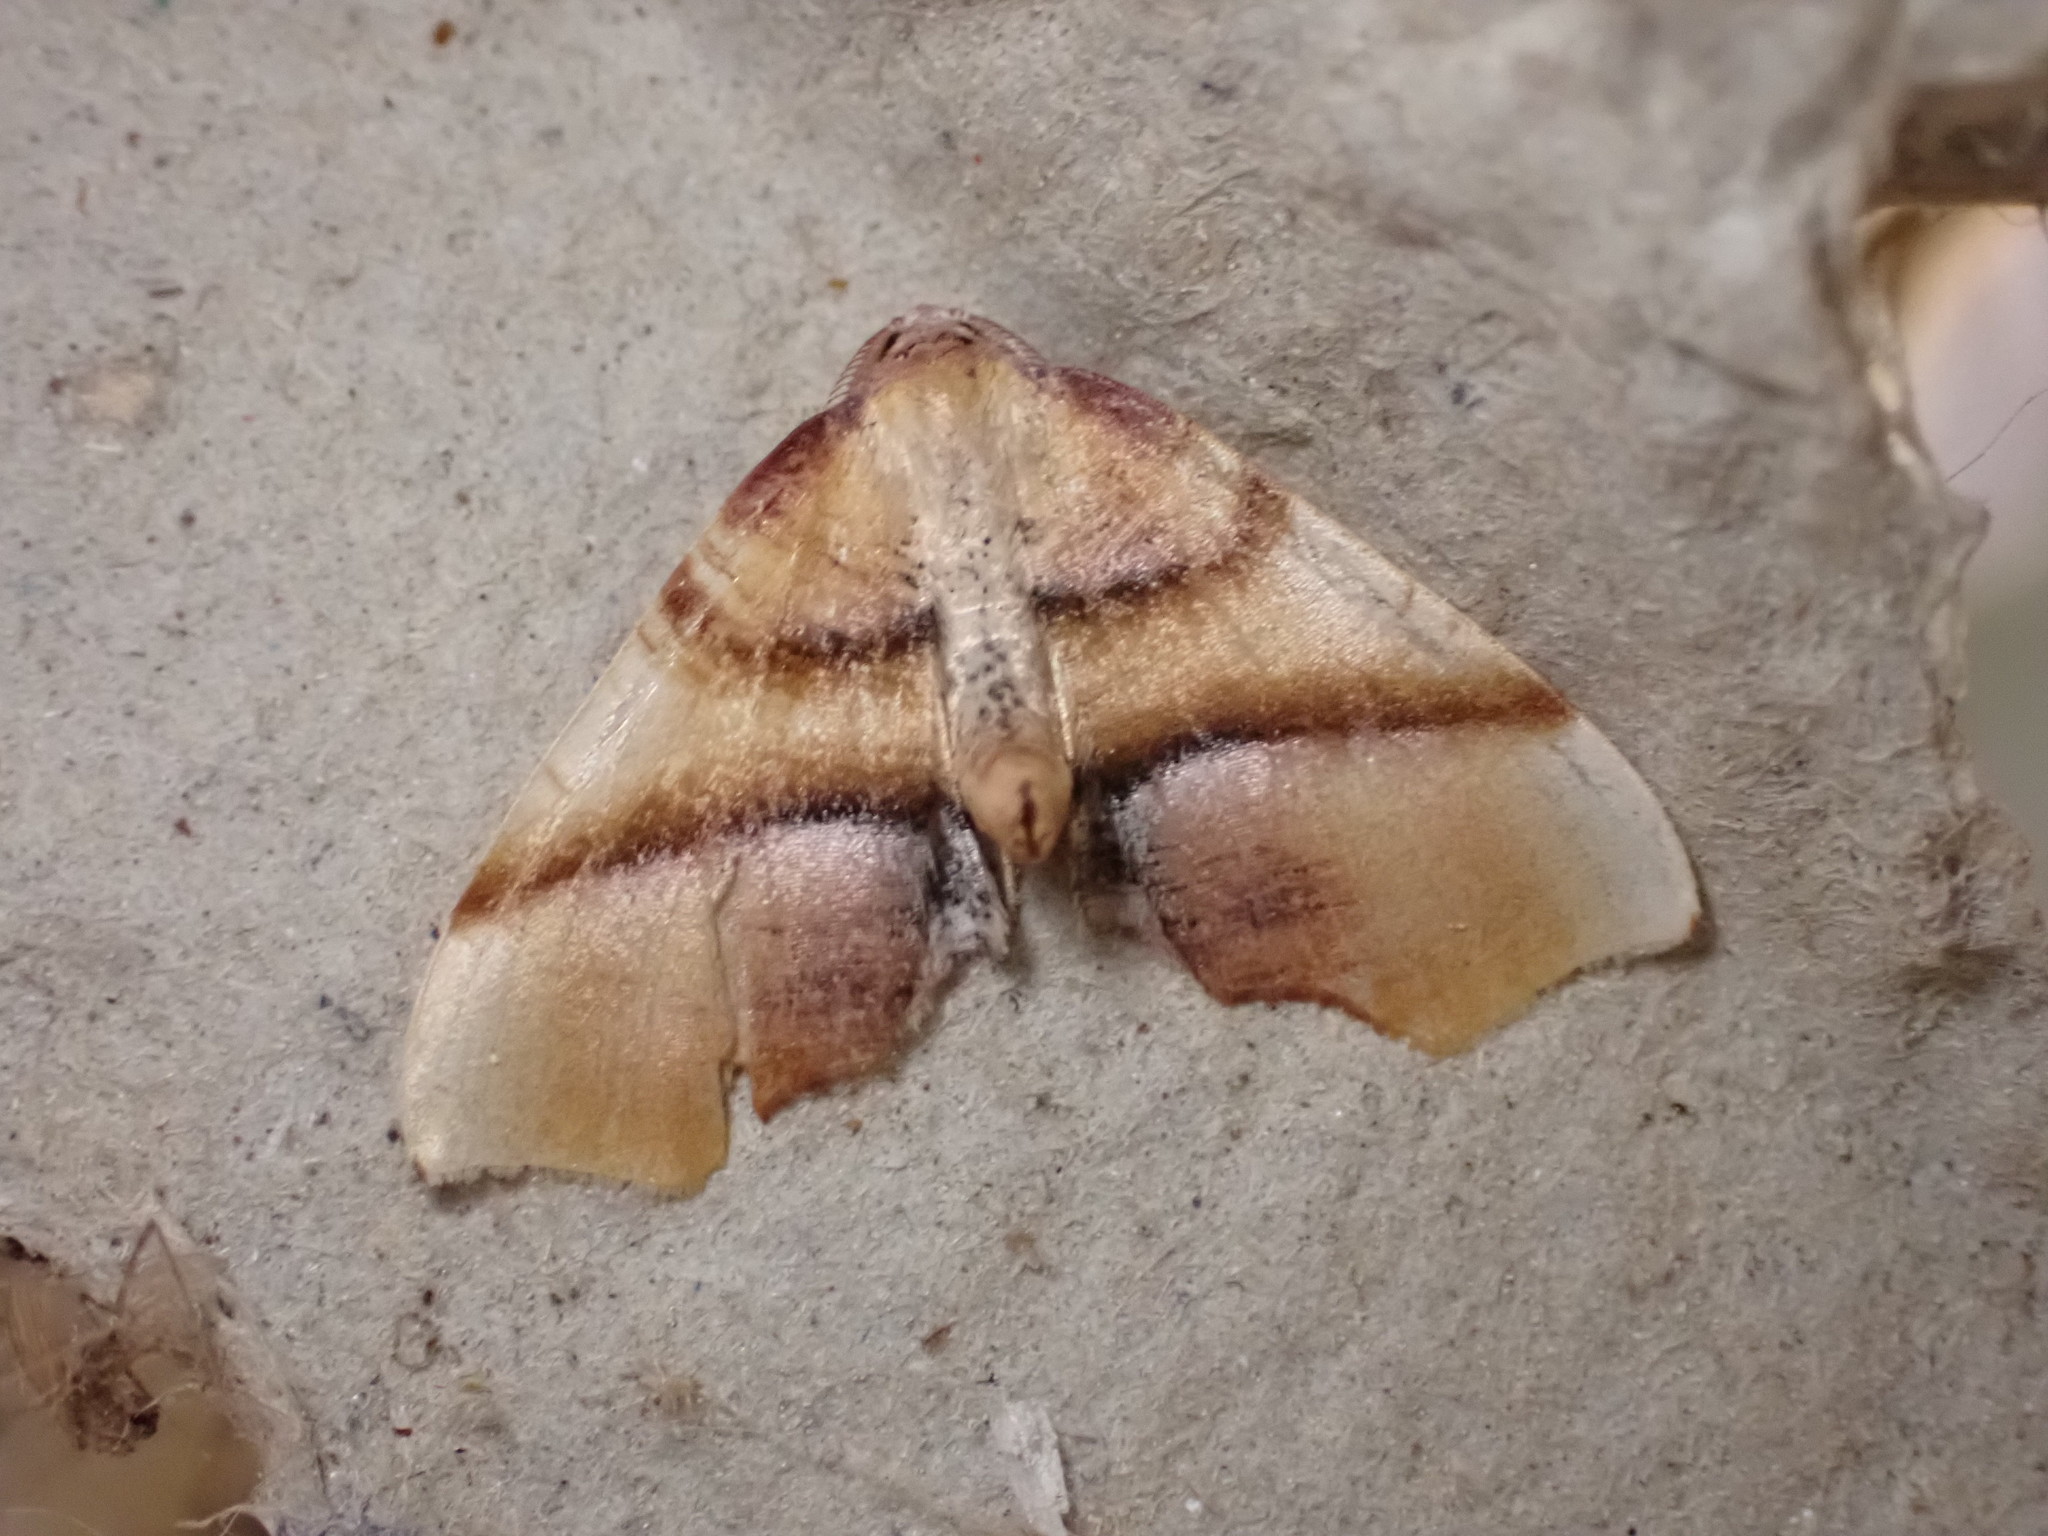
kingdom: Animalia
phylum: Arthropoda
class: Insecta
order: Lepidoptera
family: Geometridae
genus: Plagodis
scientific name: Plagodis phlogosaria
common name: Straight-lined plagodis
